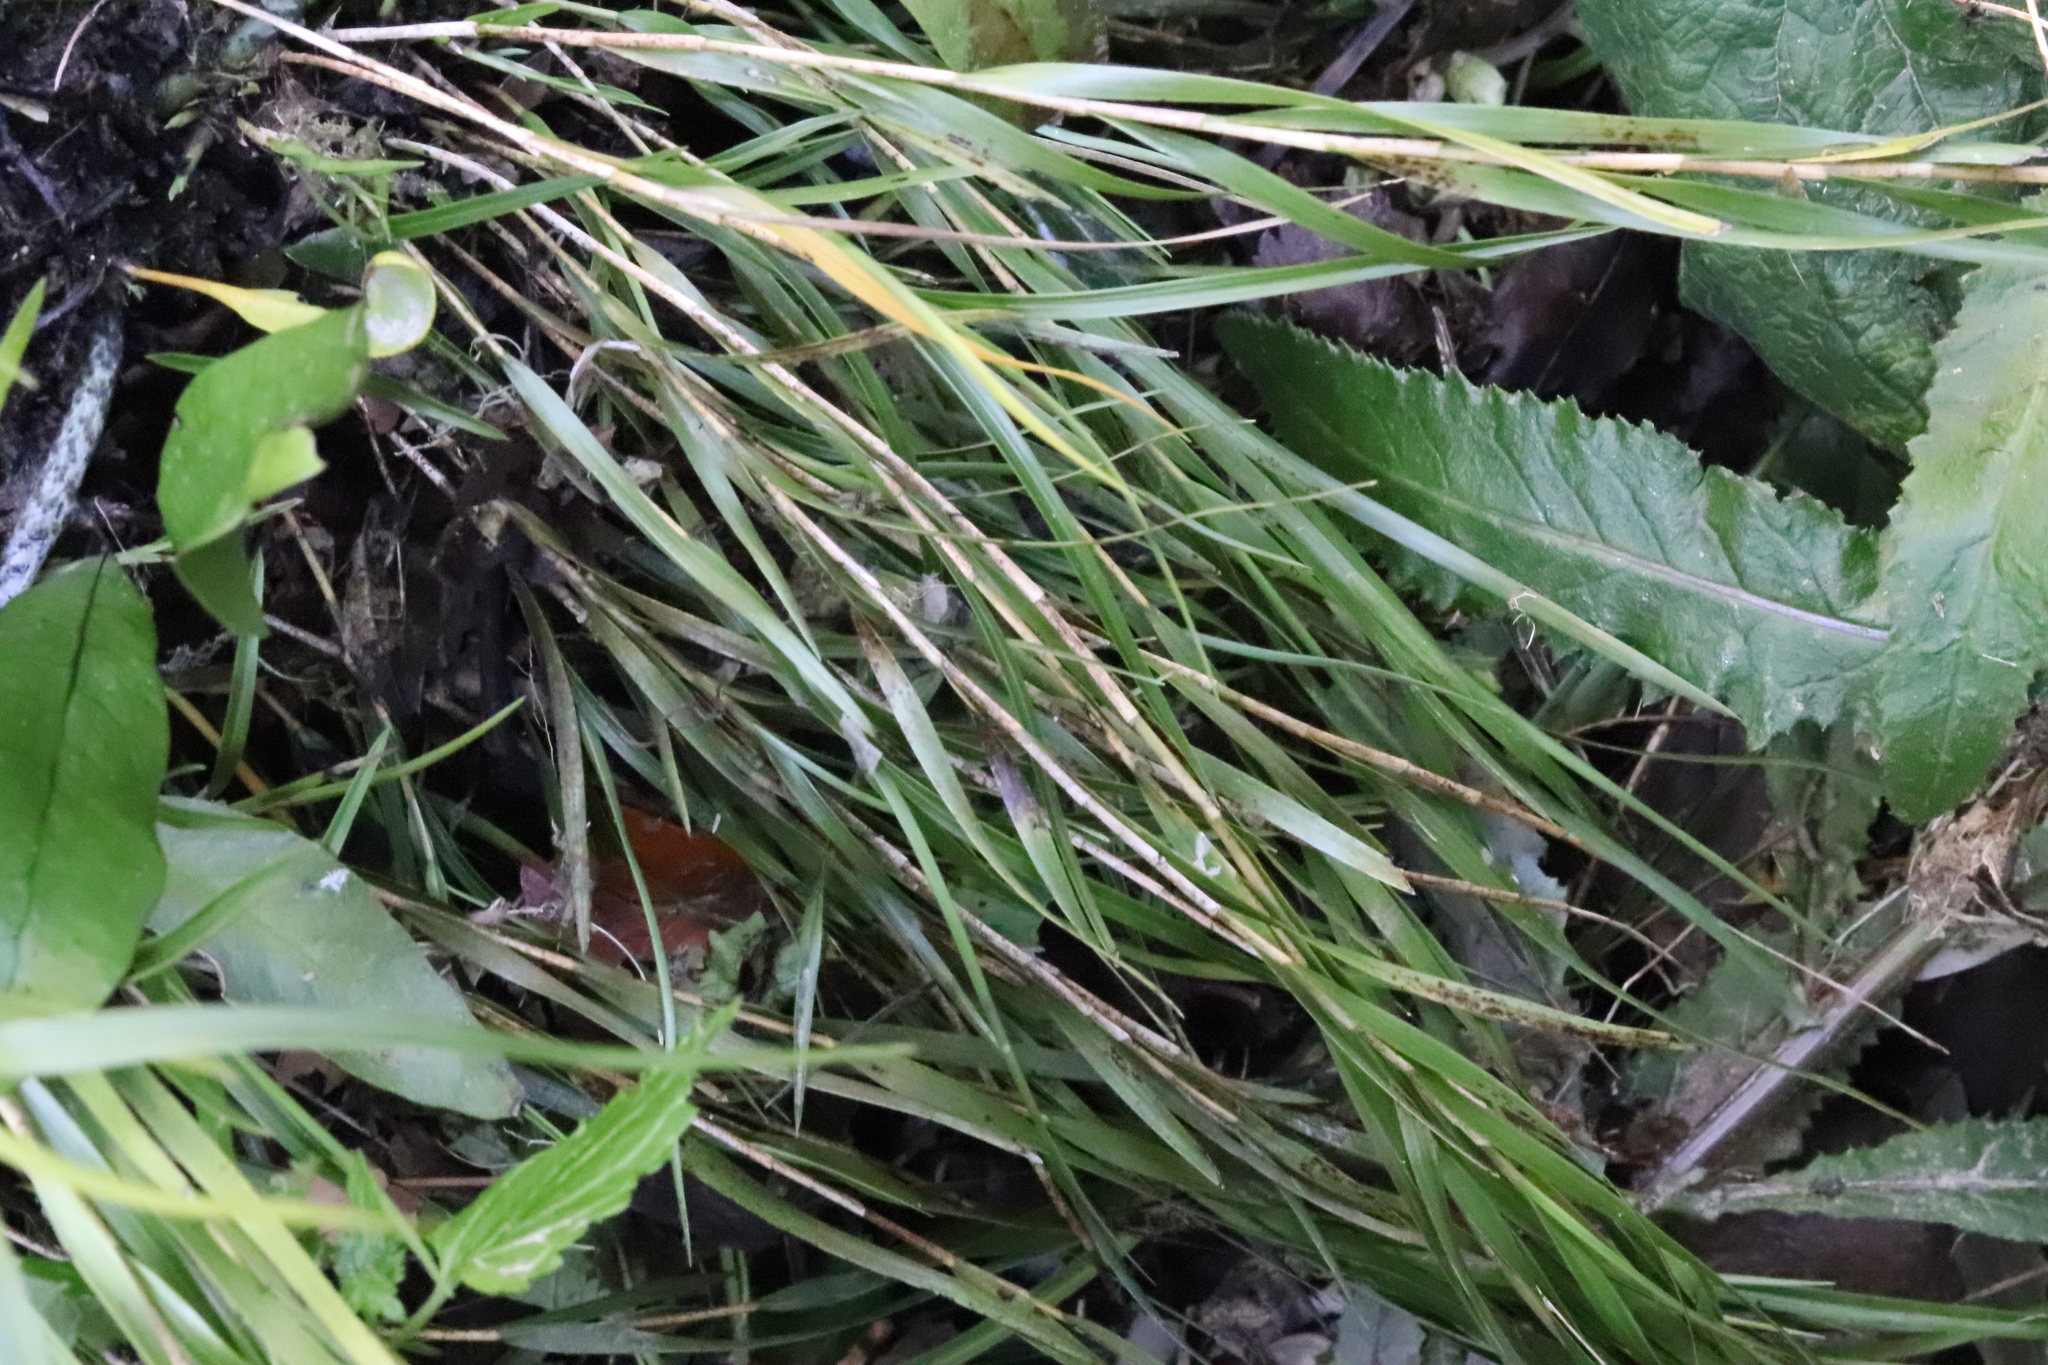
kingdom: Plantae
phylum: Tracheophyta
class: Liliopsida
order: Asparagales
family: Orchidaceae
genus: Earina
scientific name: Earina mucronata
